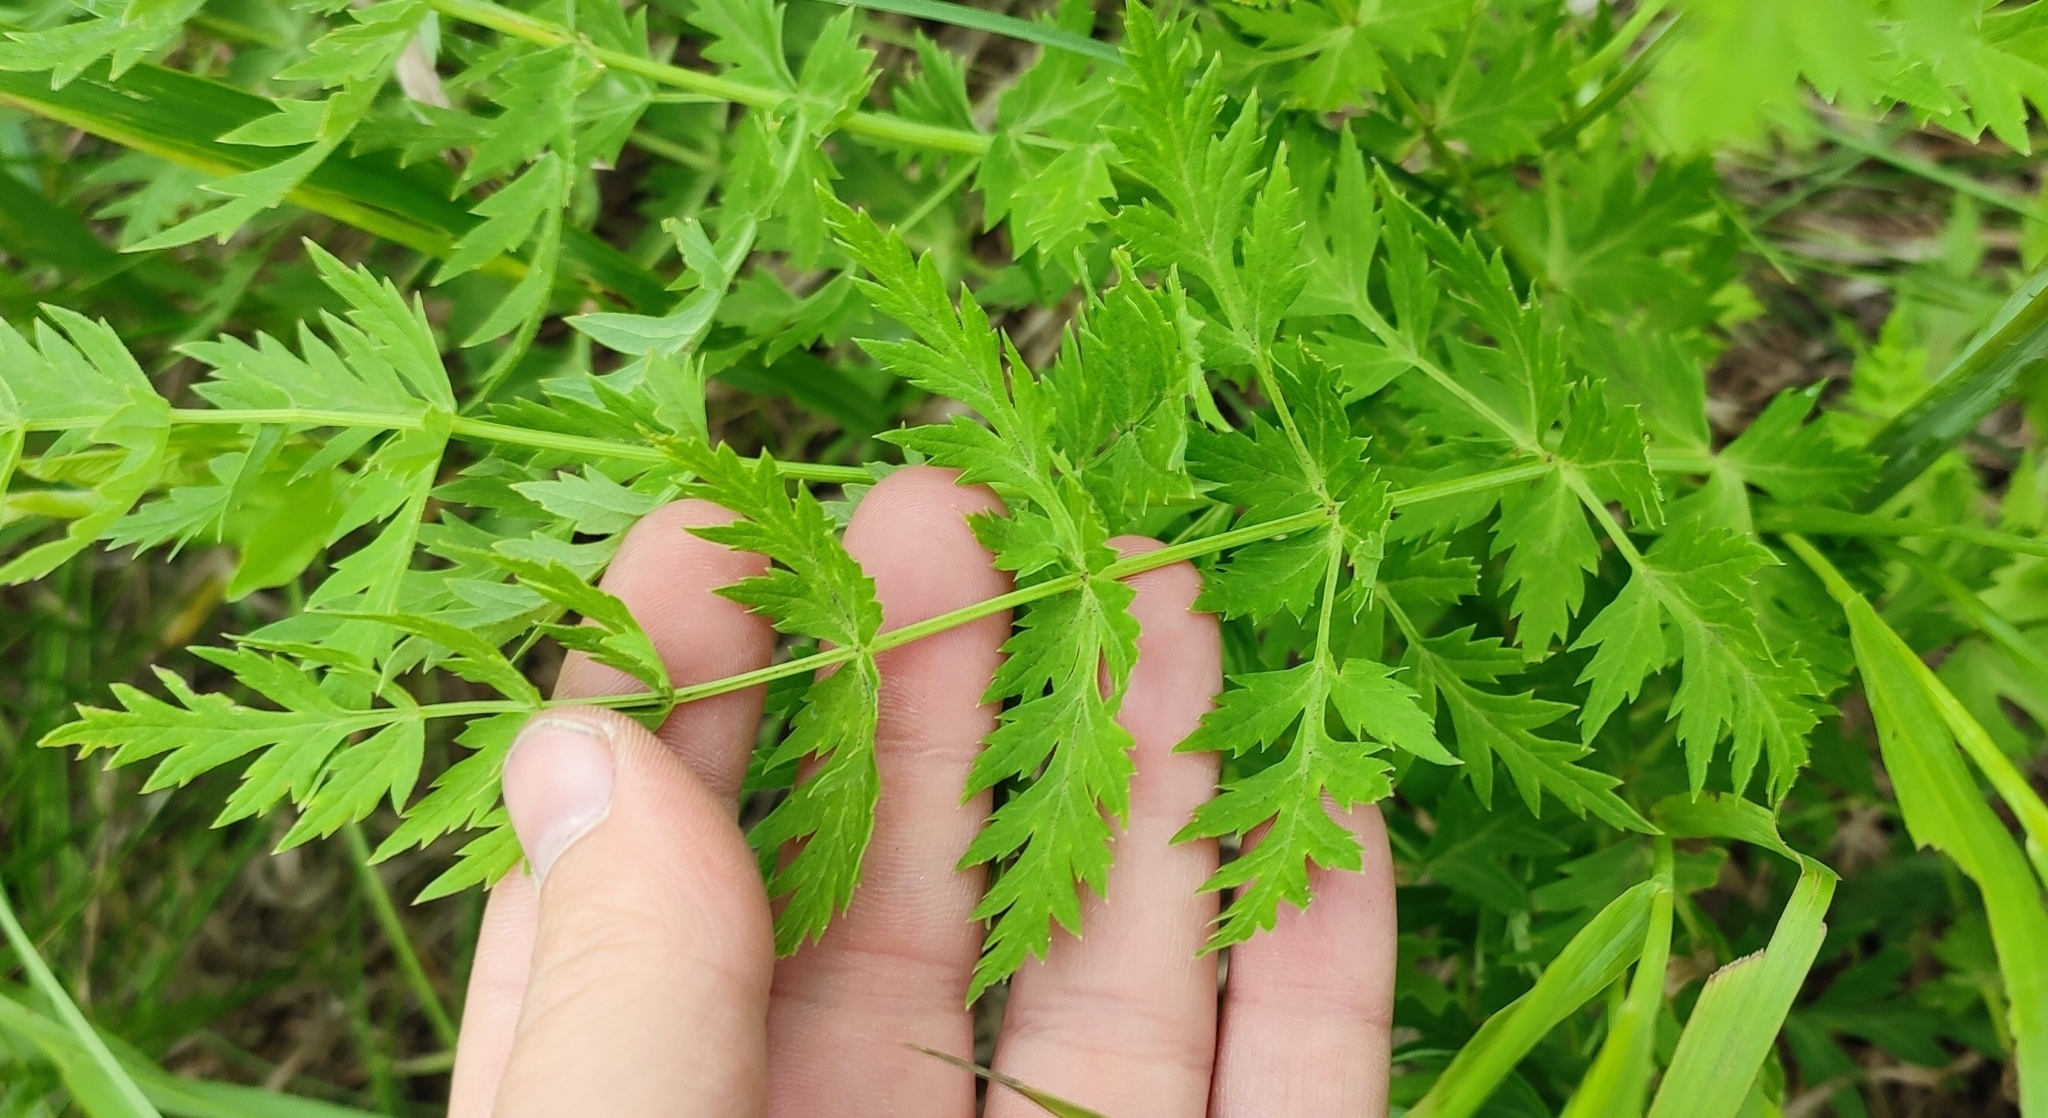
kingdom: Plantae
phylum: Tracheophyta
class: Magnoliopsida
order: Apiales
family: Apiaceae
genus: Seseli
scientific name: Seseli libanotis
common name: Mooncarrot
